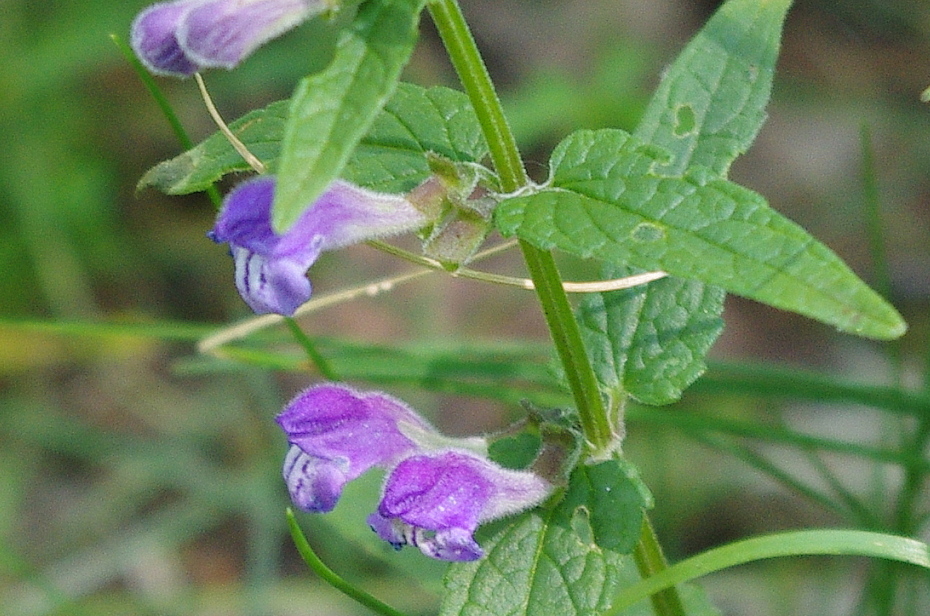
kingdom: Plantae
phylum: Tracheophyta
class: Magnoliopsida
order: Lamiales
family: Lamiaceae
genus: Scutellaria
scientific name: Scutellaria galericulata
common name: Skullcap
